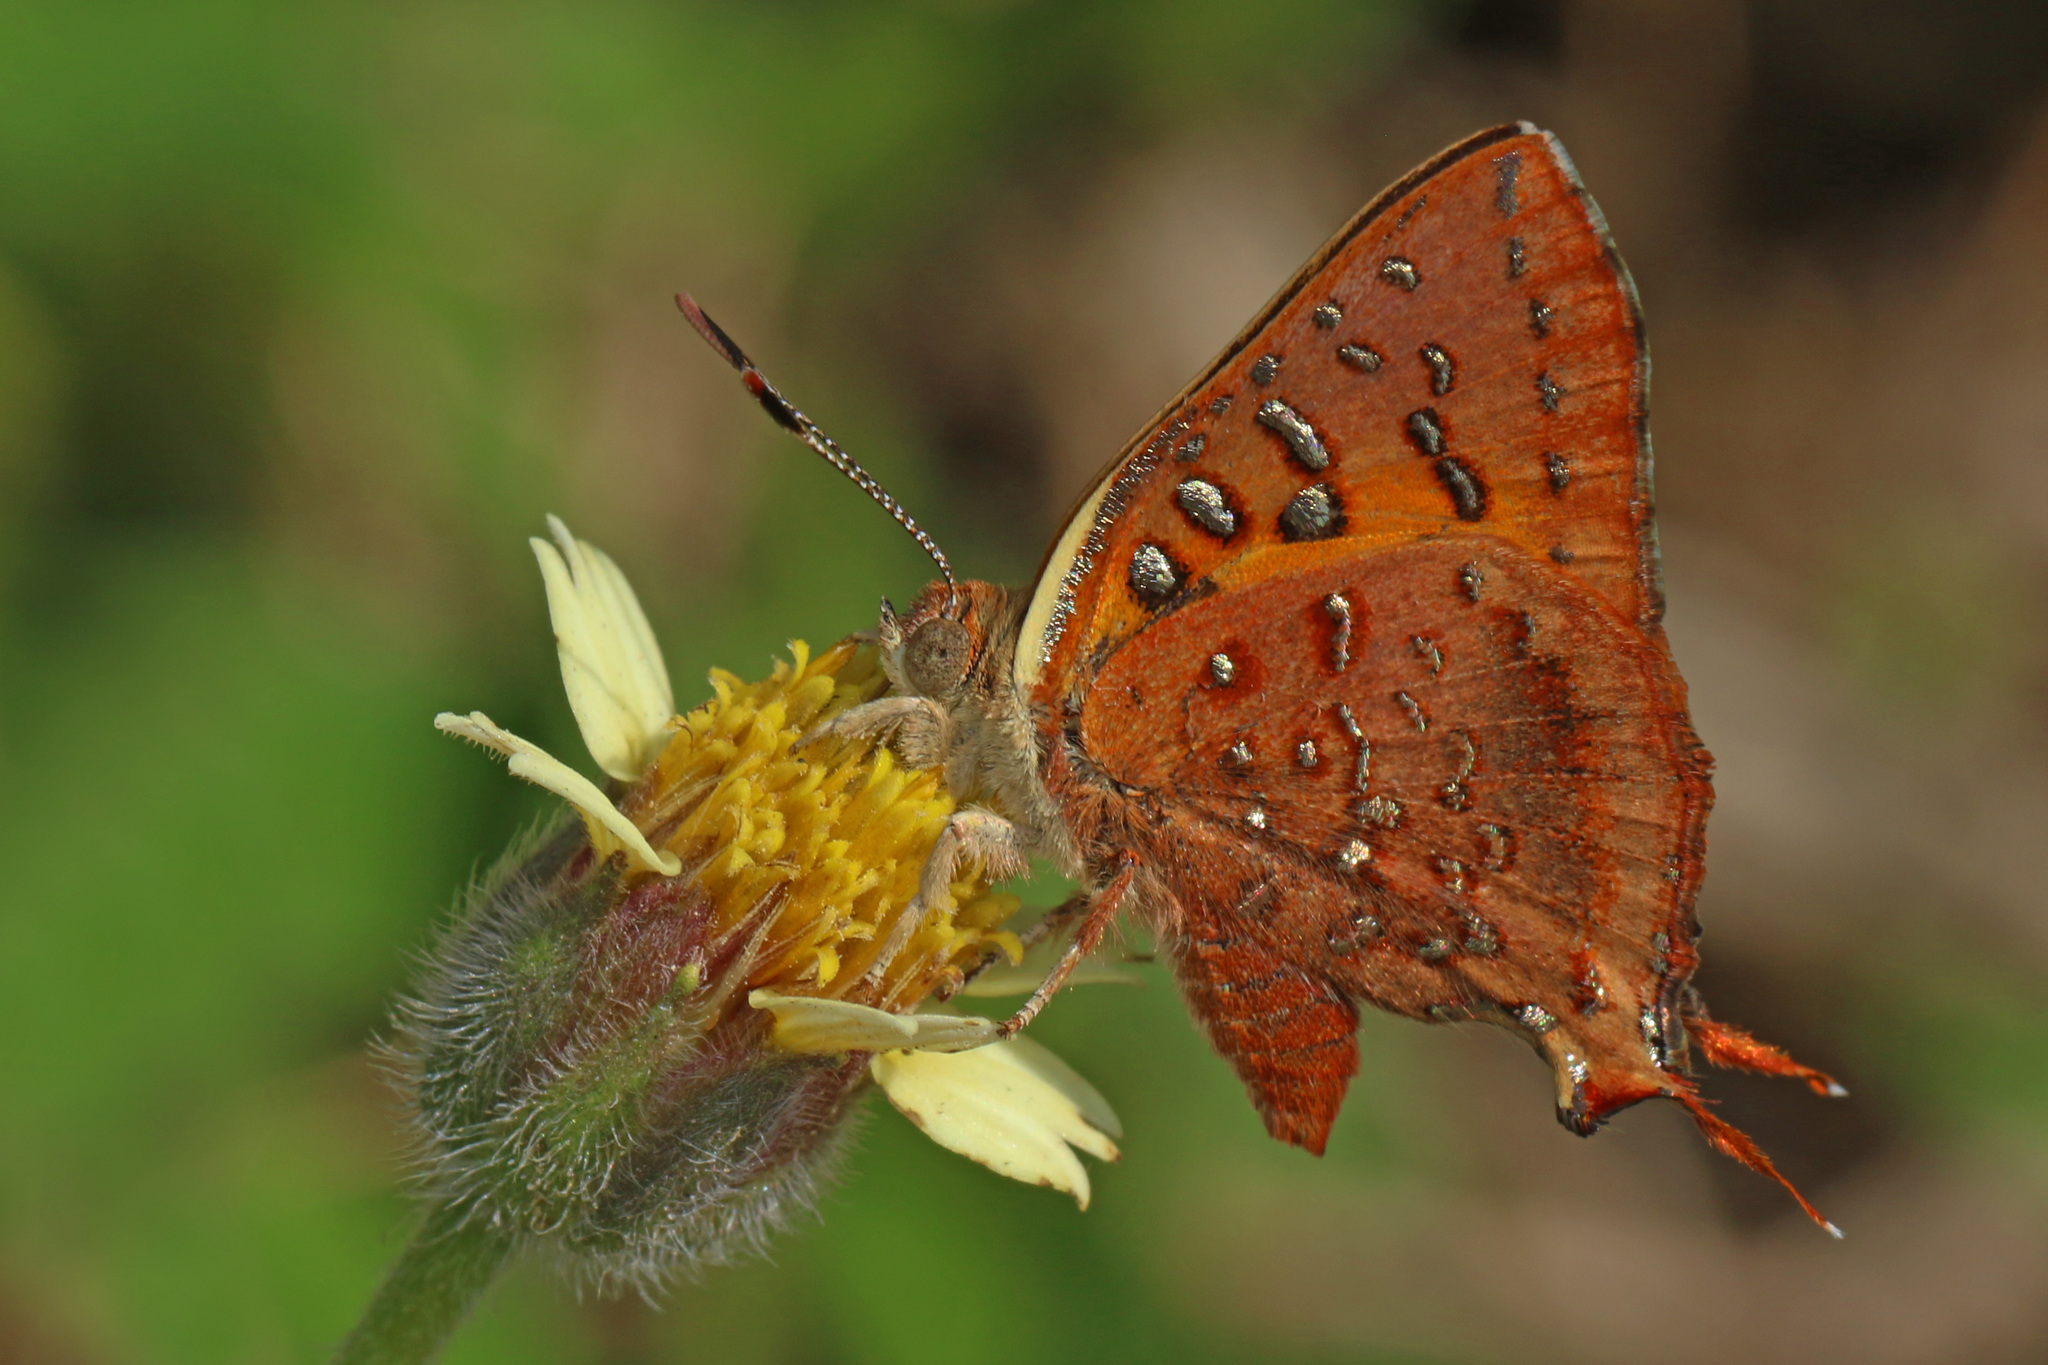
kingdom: Animalia
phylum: Arthropoda
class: Insecta
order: Lepidoptera
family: Lycaenidae
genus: Axiocerses
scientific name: Axiocerses perion
